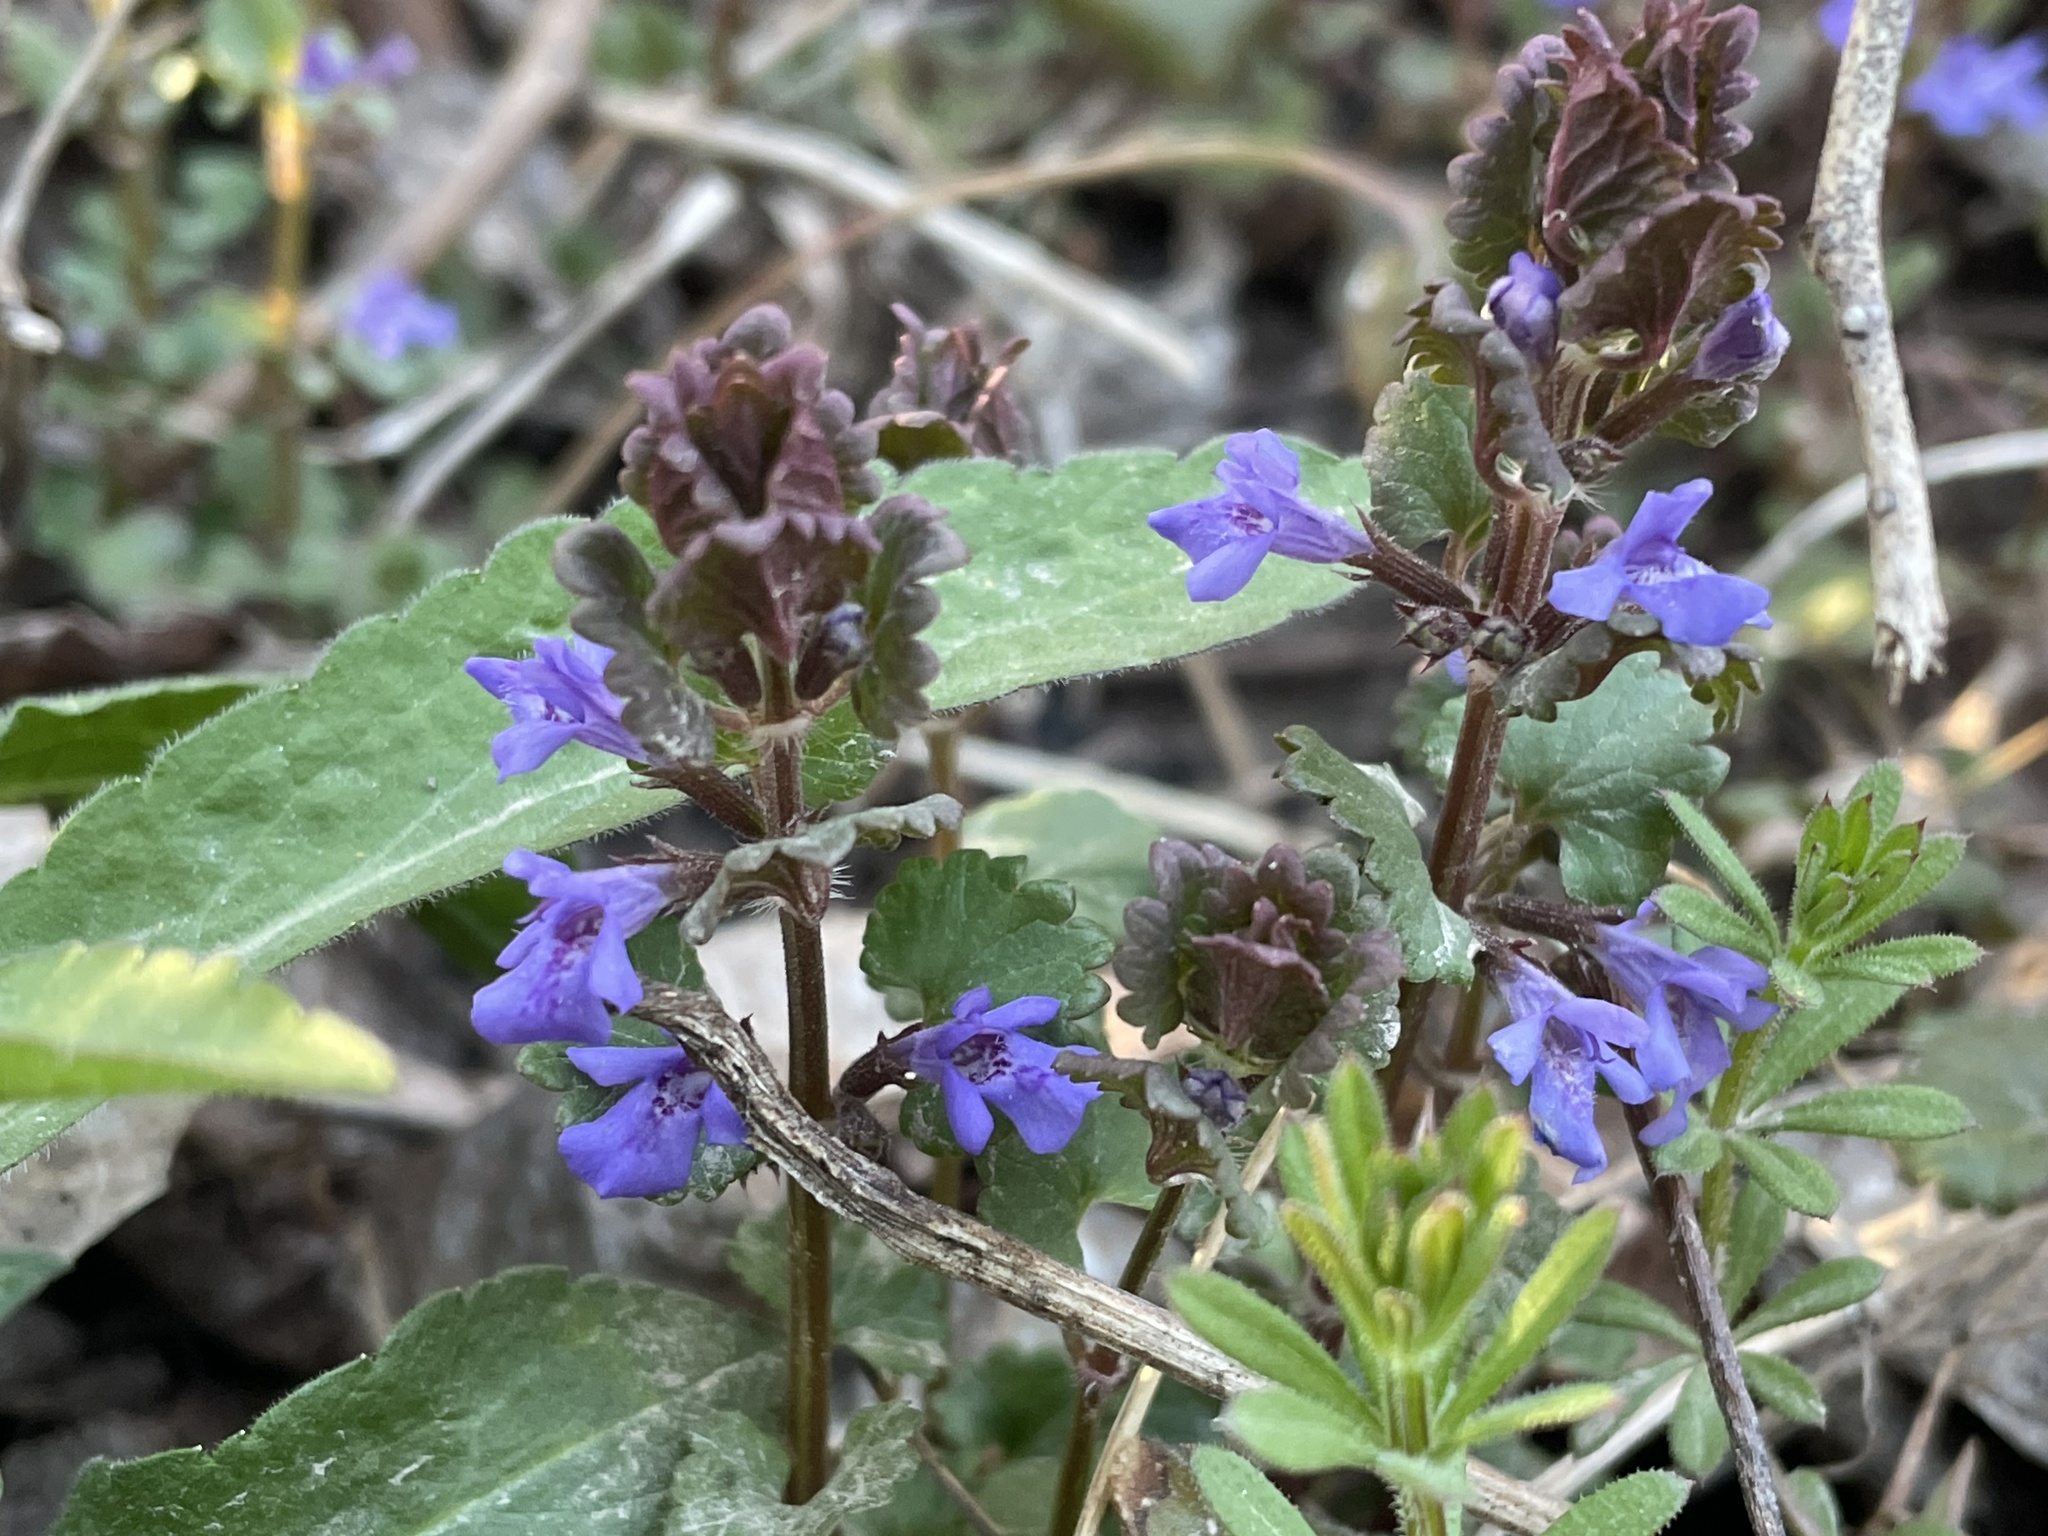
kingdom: Plantae
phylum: Tracheophyta
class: Magnoliopsida
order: Lamiales
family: Lamiaceae
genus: Glechoma
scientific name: Glechoma hederacea
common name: Ground ivy
